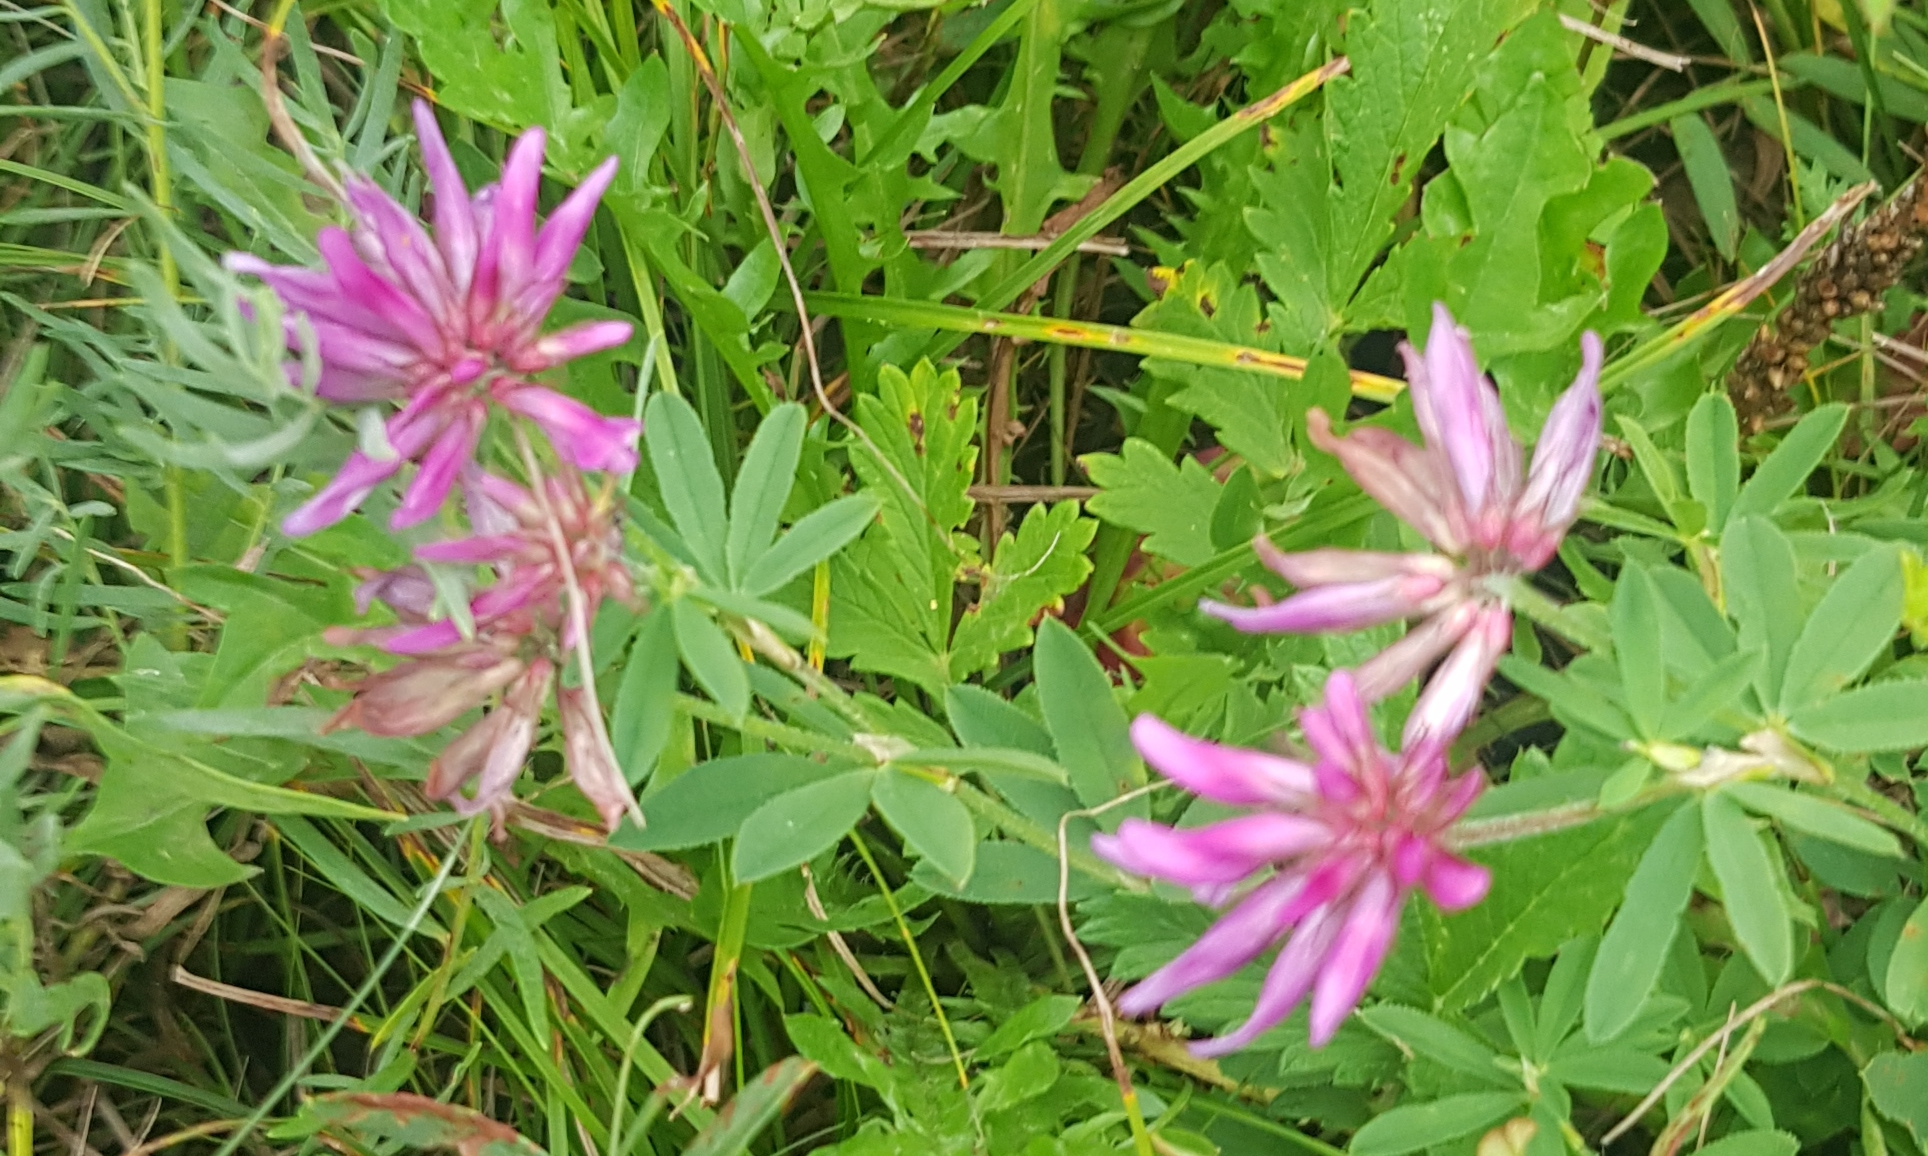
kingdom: Plantae
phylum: Tracheophyta
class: Magnoliopsida
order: Fabales
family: Fabaceae
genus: Trifolium
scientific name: Trifolium lupinaster
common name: Lupine clover
